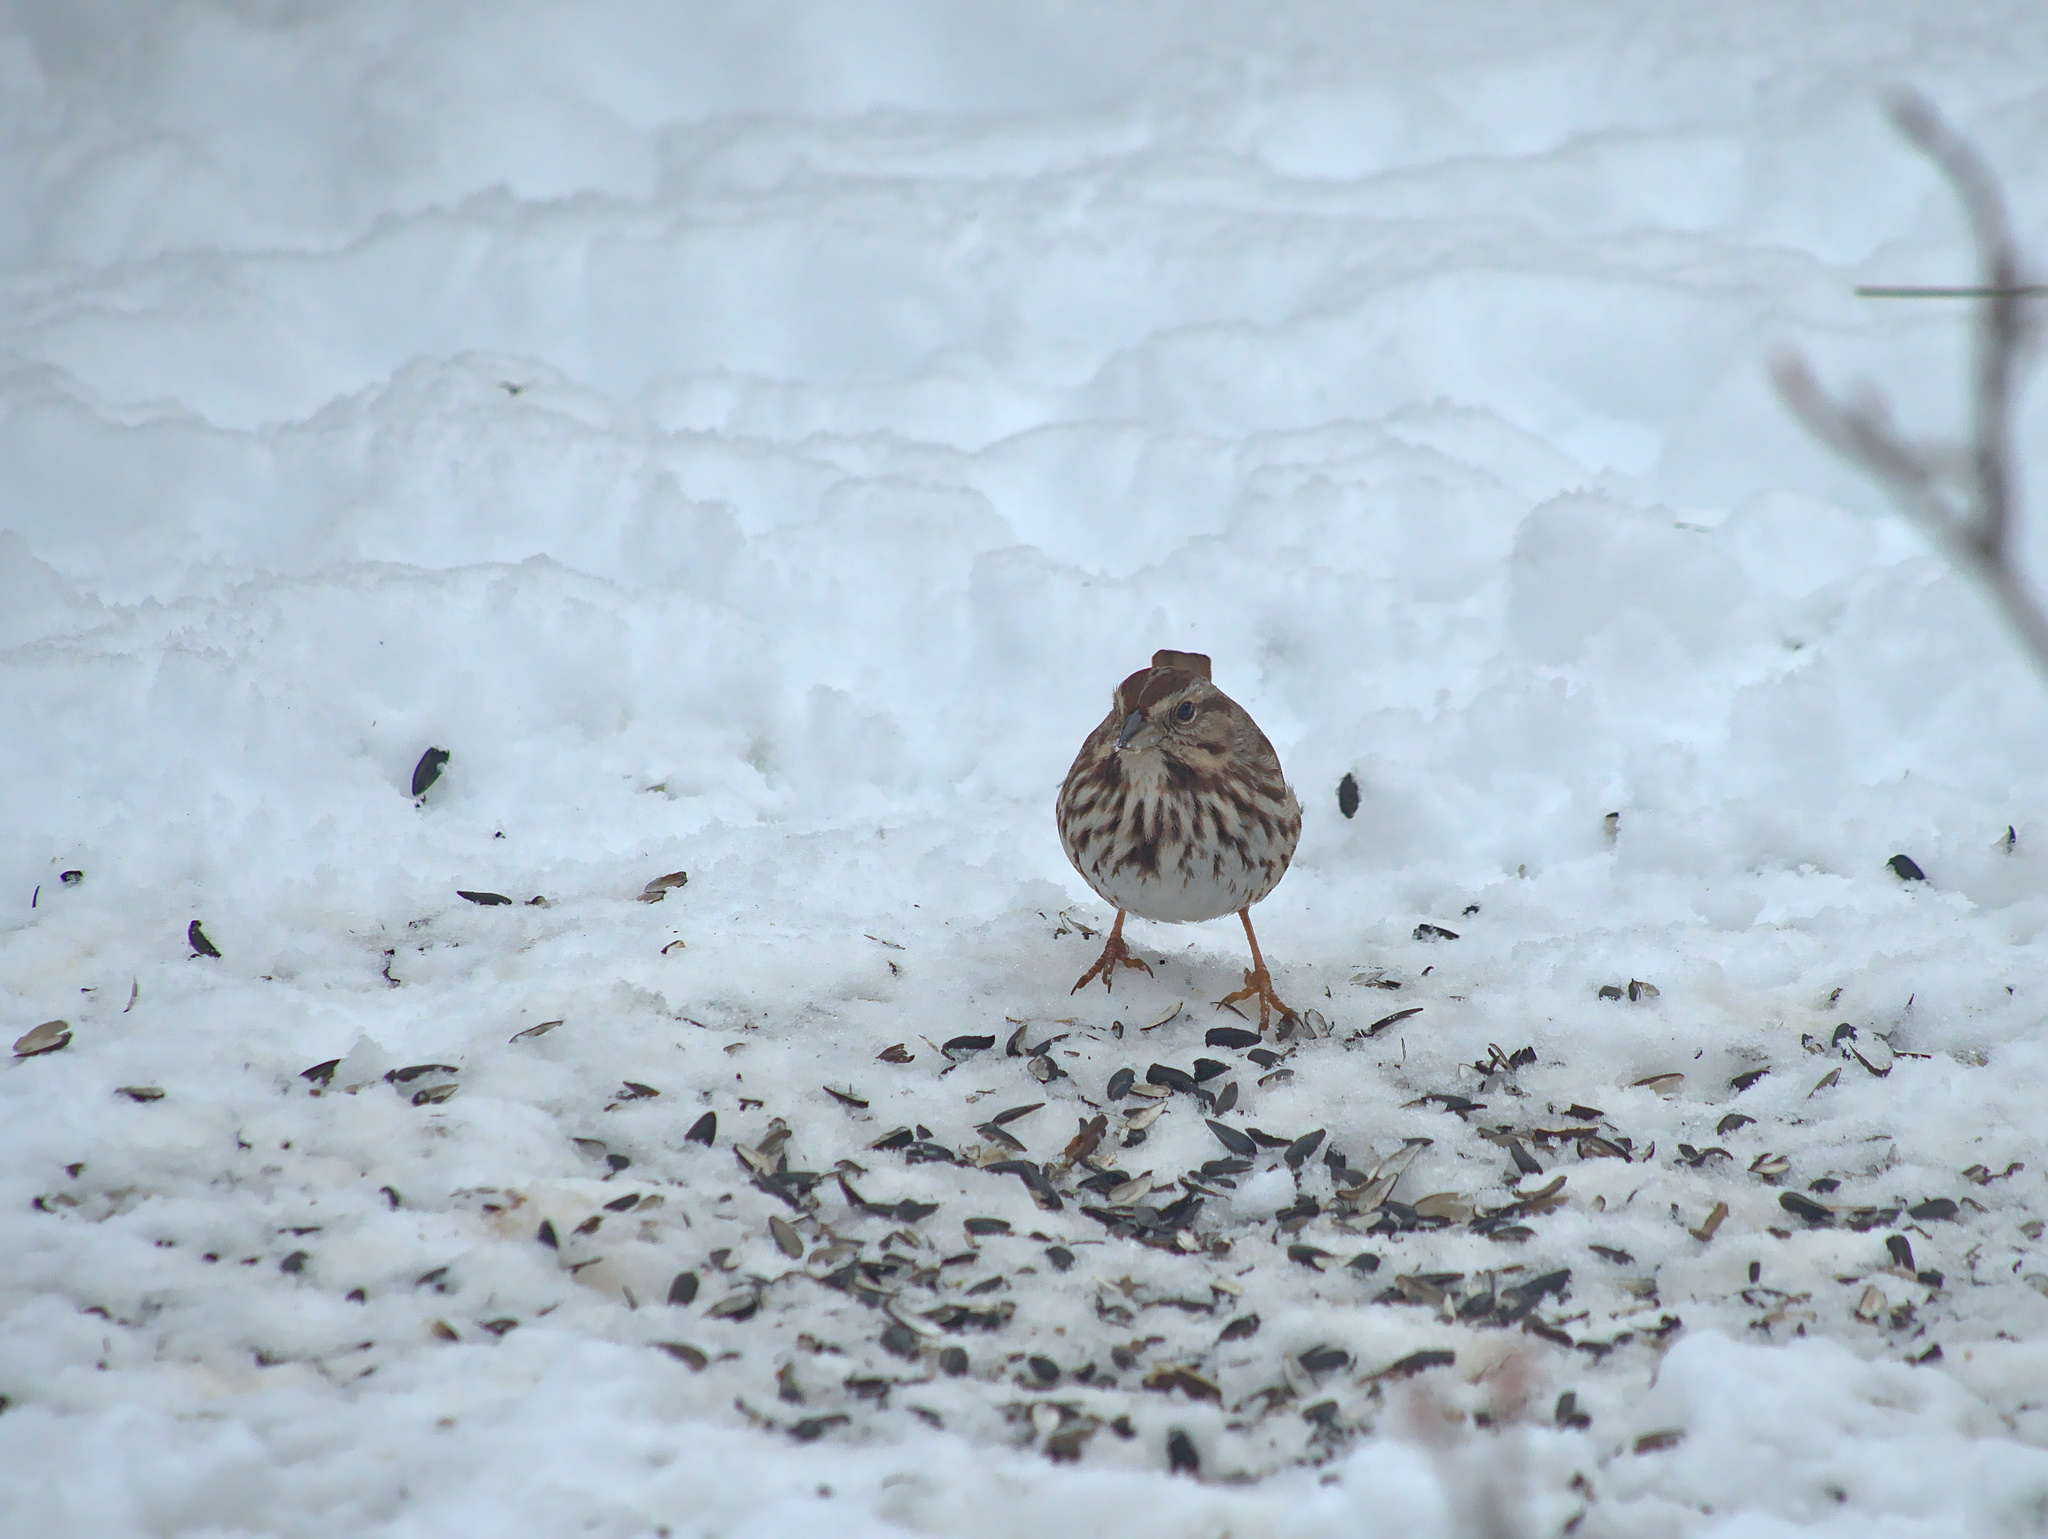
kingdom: Animalia
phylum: Chordata
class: Aves
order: Passeriformes
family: Passerellidae
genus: Melospiza
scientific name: Melospiza melodia
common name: Song sparrow
